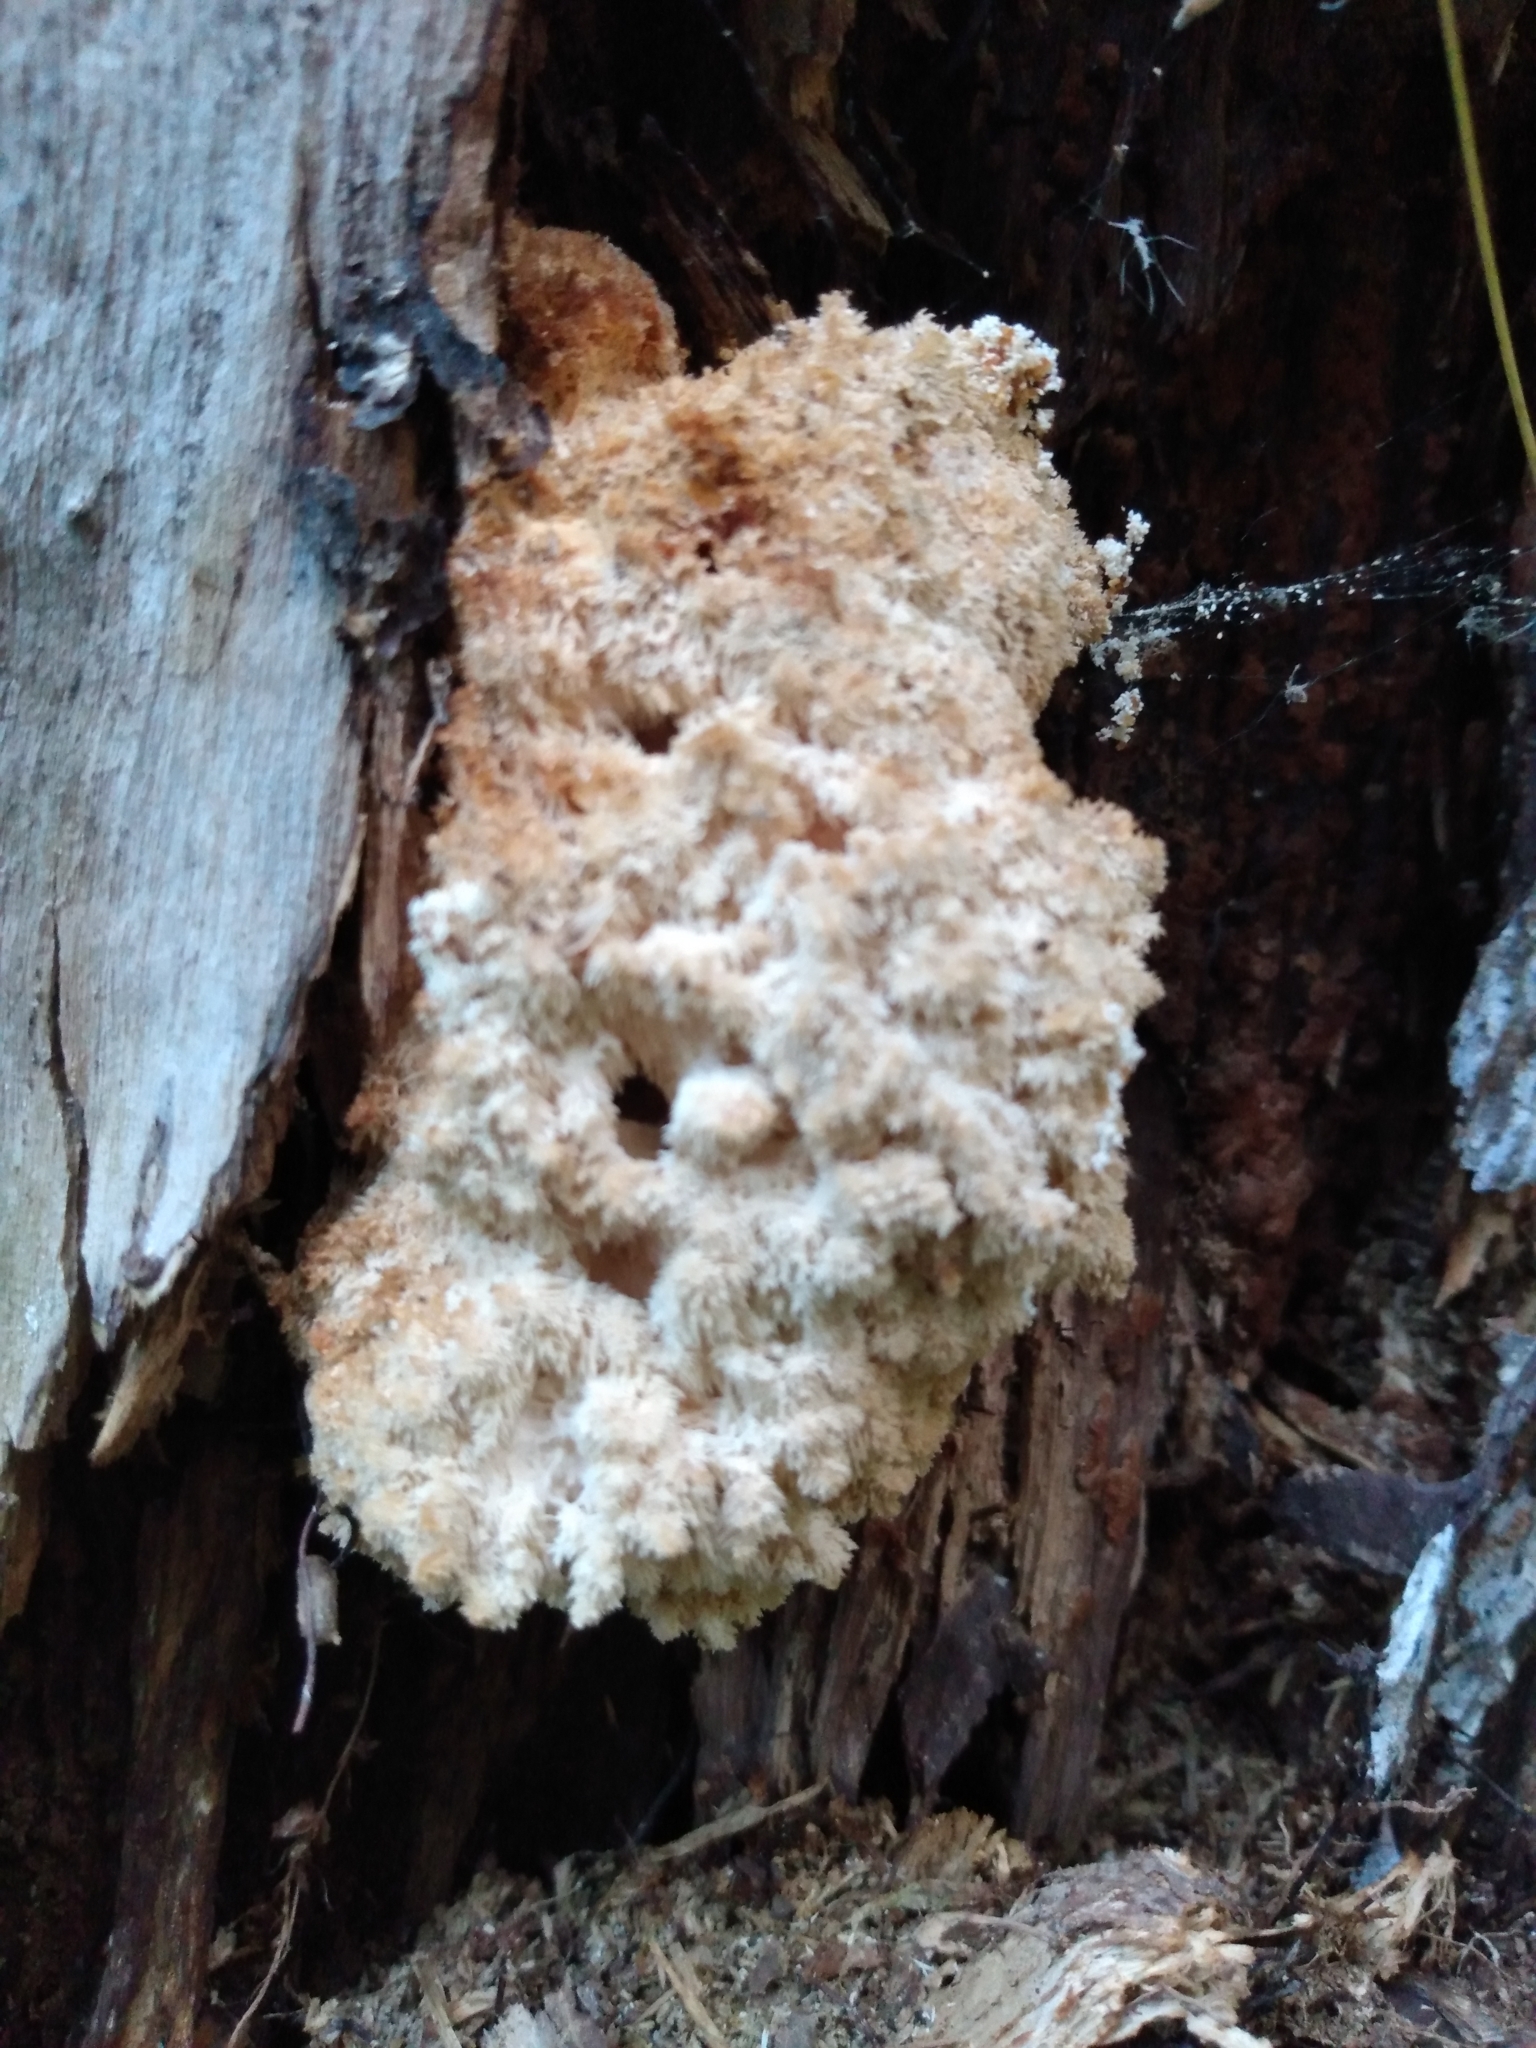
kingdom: Fungi
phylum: Basidiomycota
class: Agaricomycetes
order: Russulales
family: Hericiaceae
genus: Hericium
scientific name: Hericium coralloides
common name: Coral tooth
